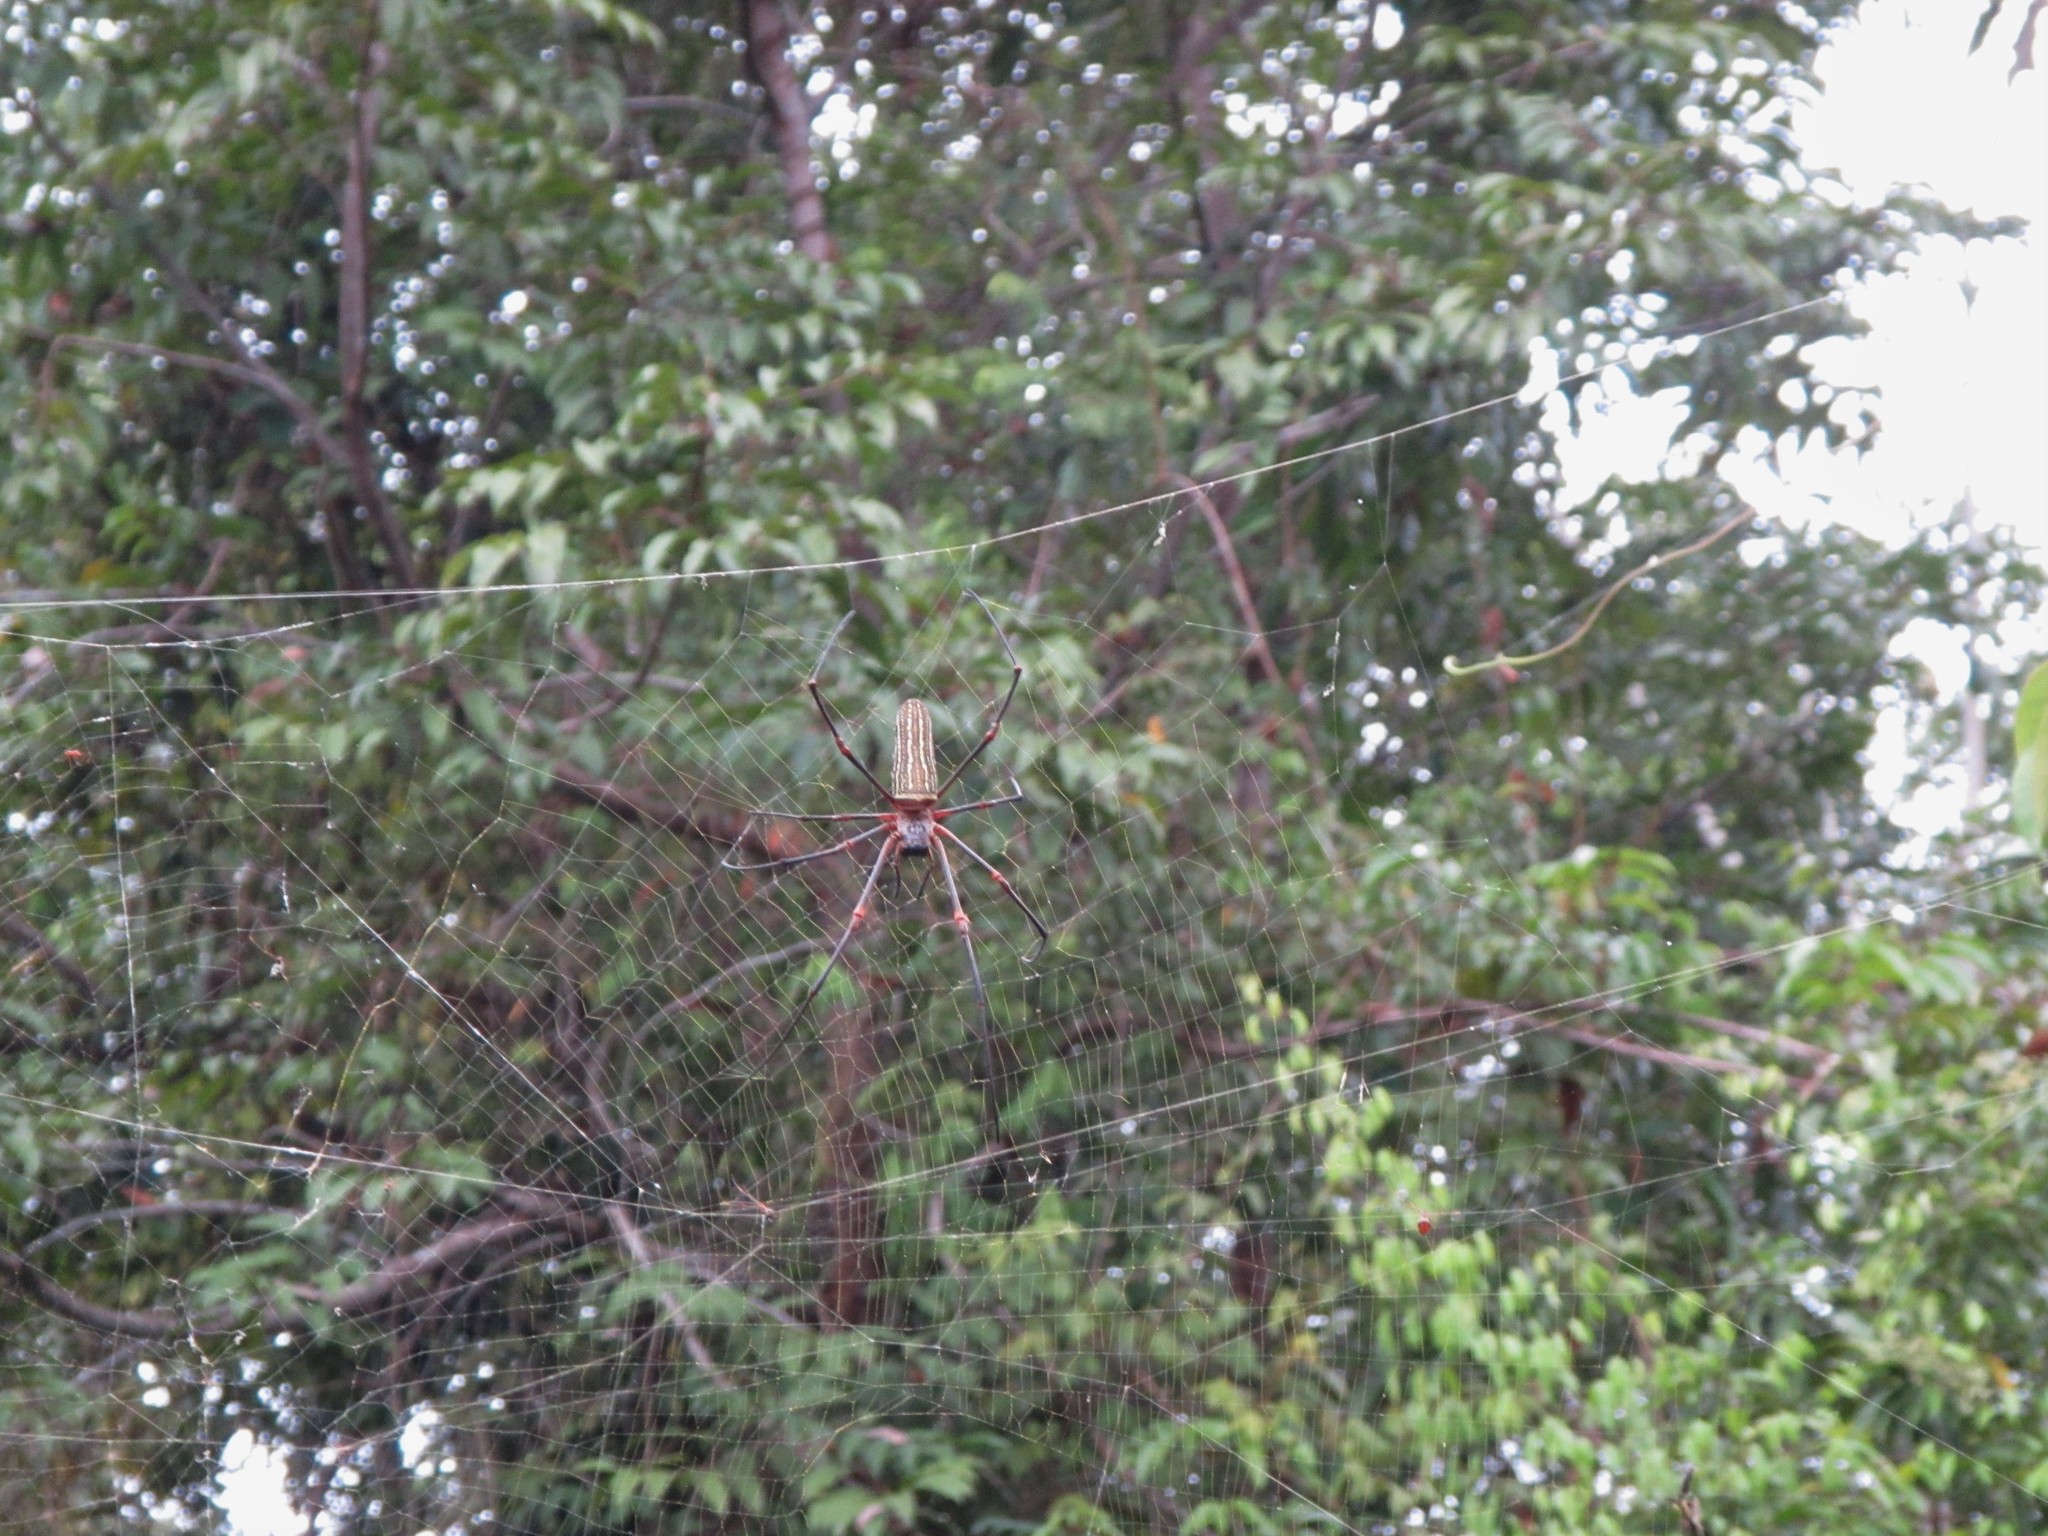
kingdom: Animalia
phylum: Arthropoda
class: Arachnida
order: Araneae
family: Araneidae
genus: Nephila
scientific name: Nephila constricta
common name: Constricted golden orb weaver
